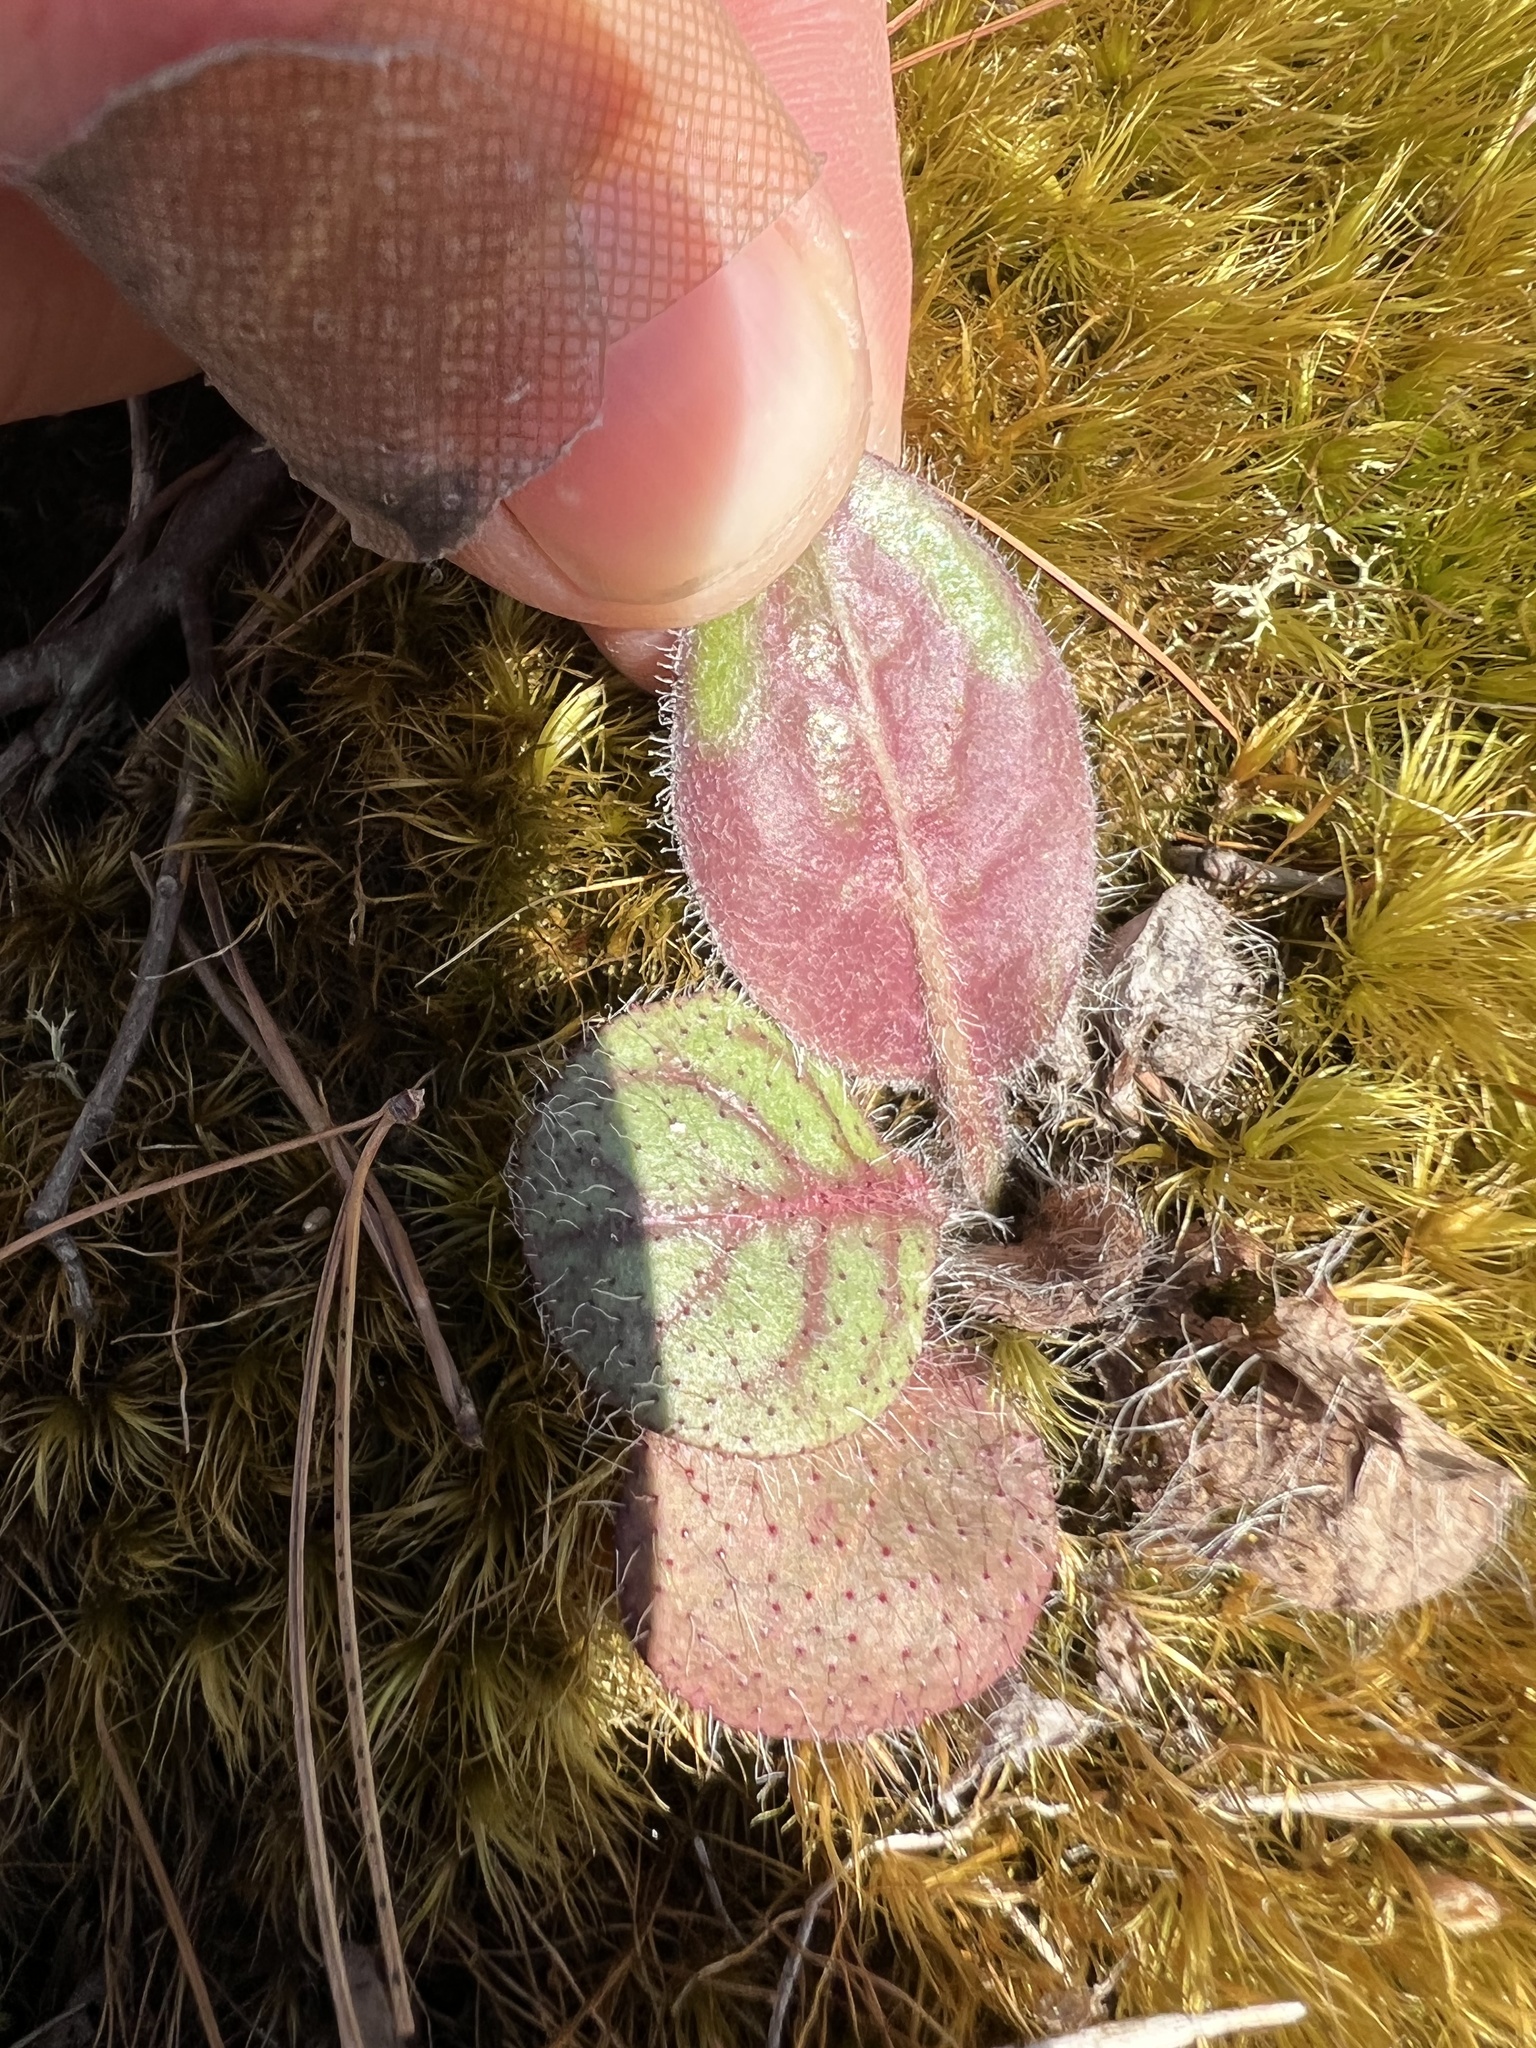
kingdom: Plantae
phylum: Tracheophyta
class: Magnoliopsida
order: Asterales
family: Asteraceae
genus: Hieracium
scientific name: Hieracium venosum
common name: Rattlesnake hawkweed
